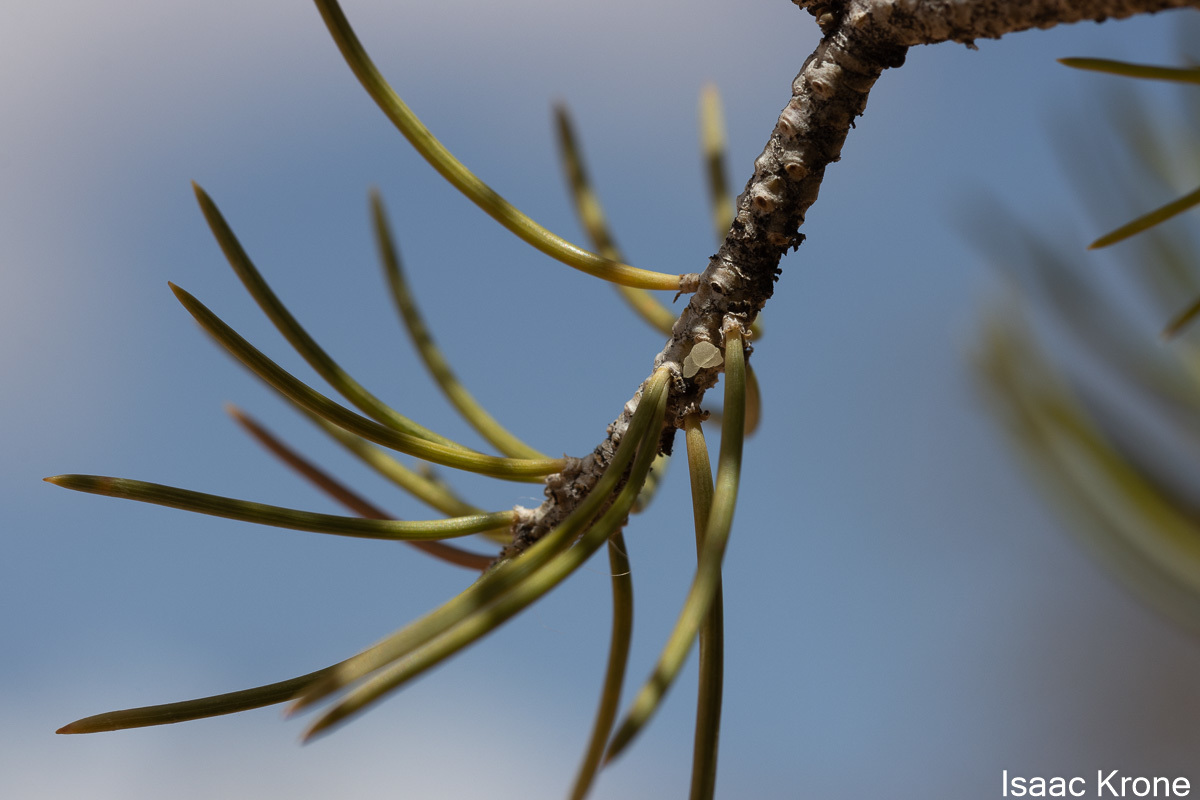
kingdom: Plantae
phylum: Tracheophyta
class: Pinopsida
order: Pinales
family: Pinaceae
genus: Pinus
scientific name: Pinus edulis
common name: Colorado pinyon
